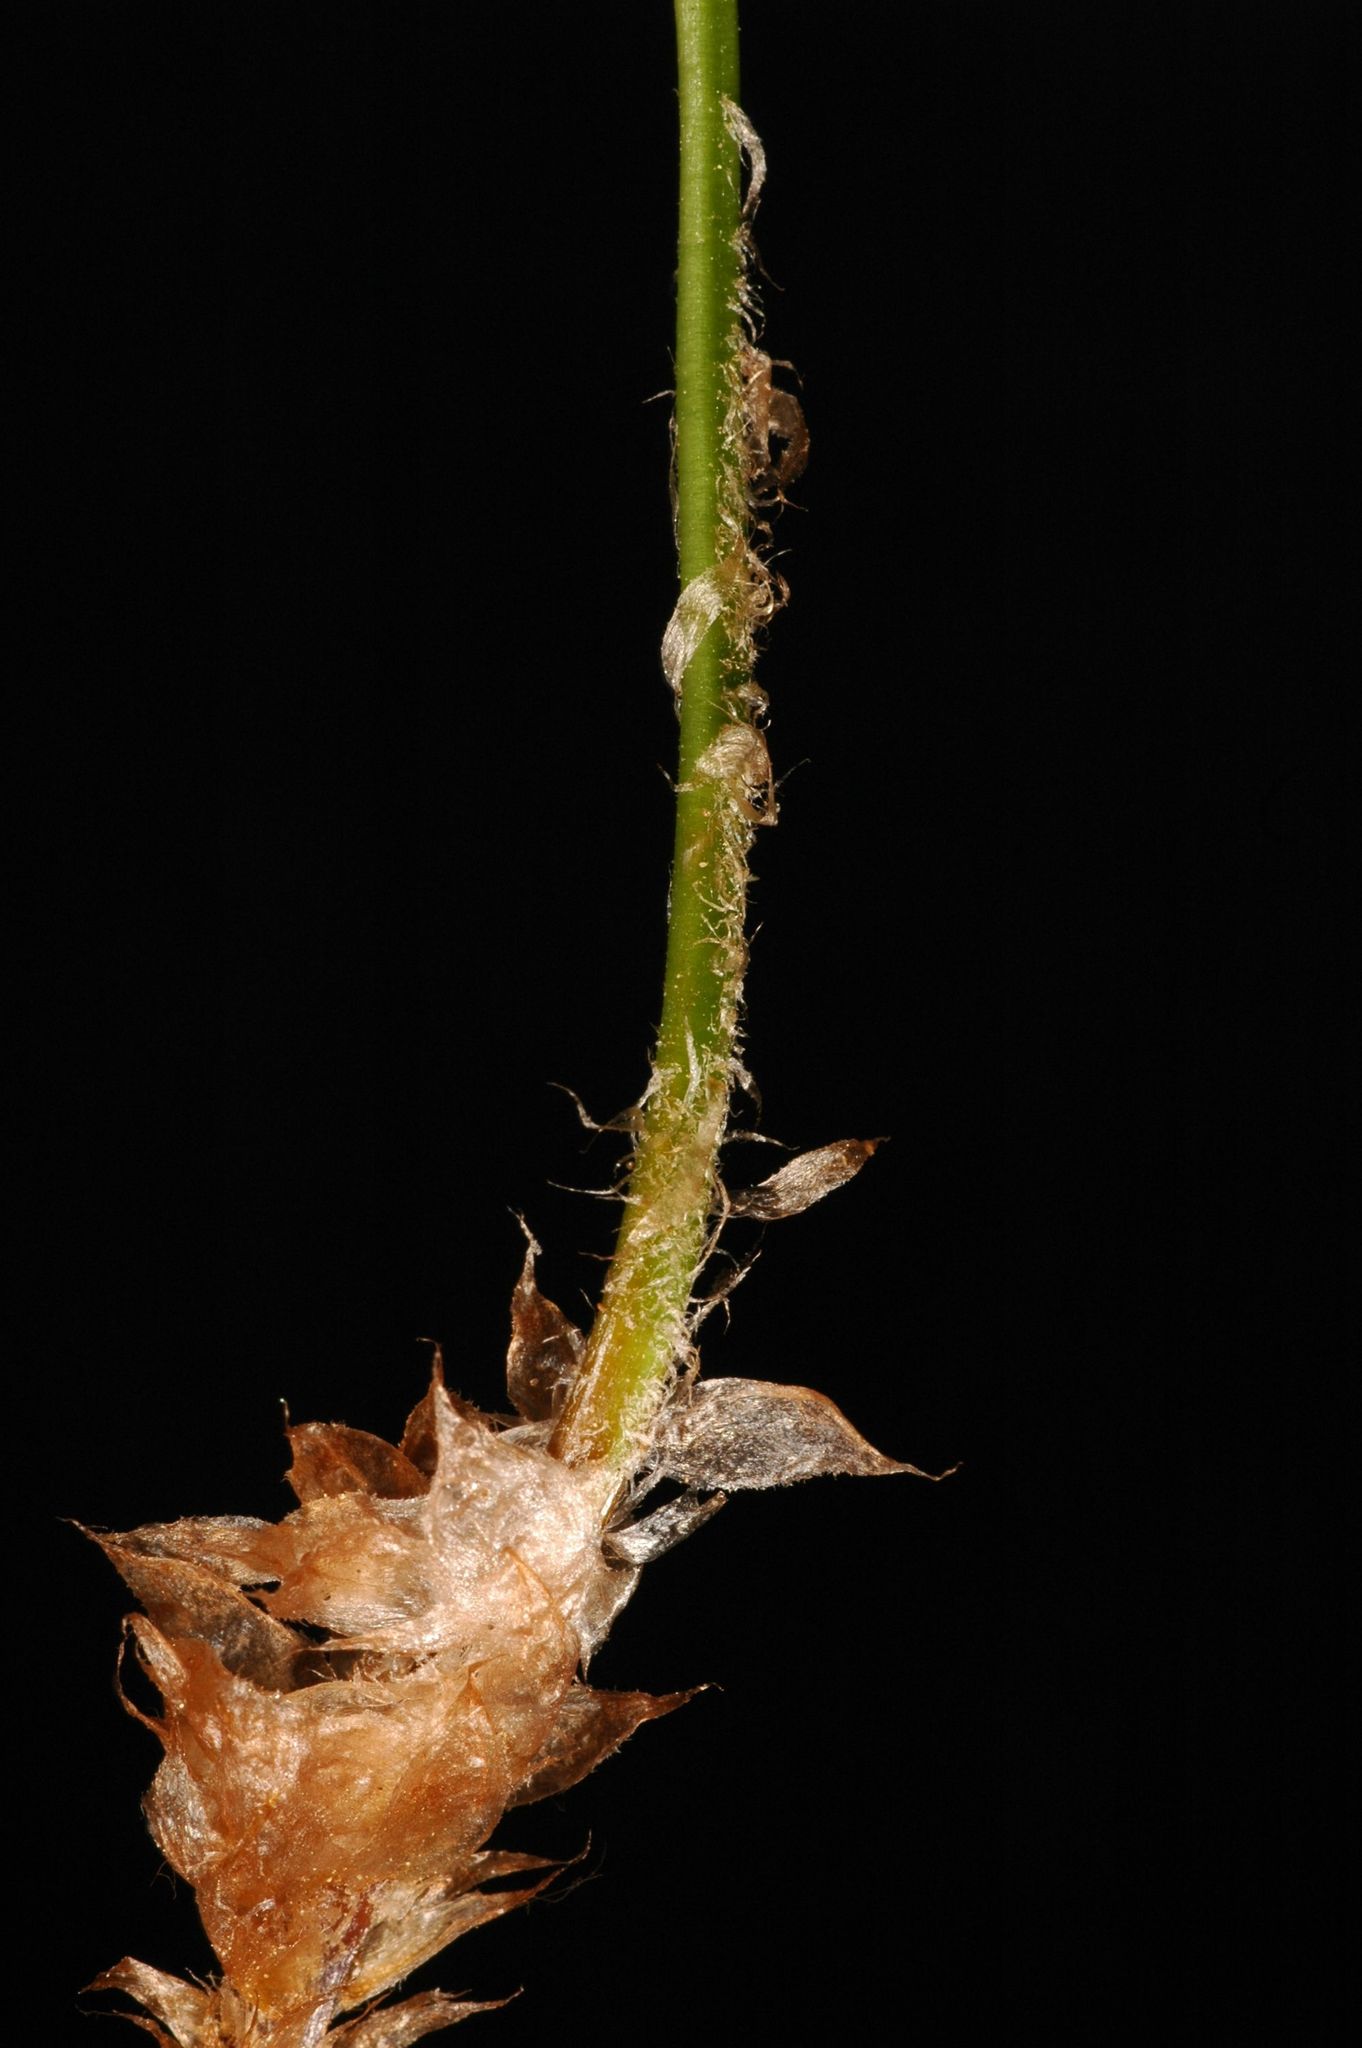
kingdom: Plantae
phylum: Tracheophyta
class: Polypodiopsida
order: Polypodiales
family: Dryopteridaceae
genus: Polystichum
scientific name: Polystichum scopulinum
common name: Eaton's shield fern
